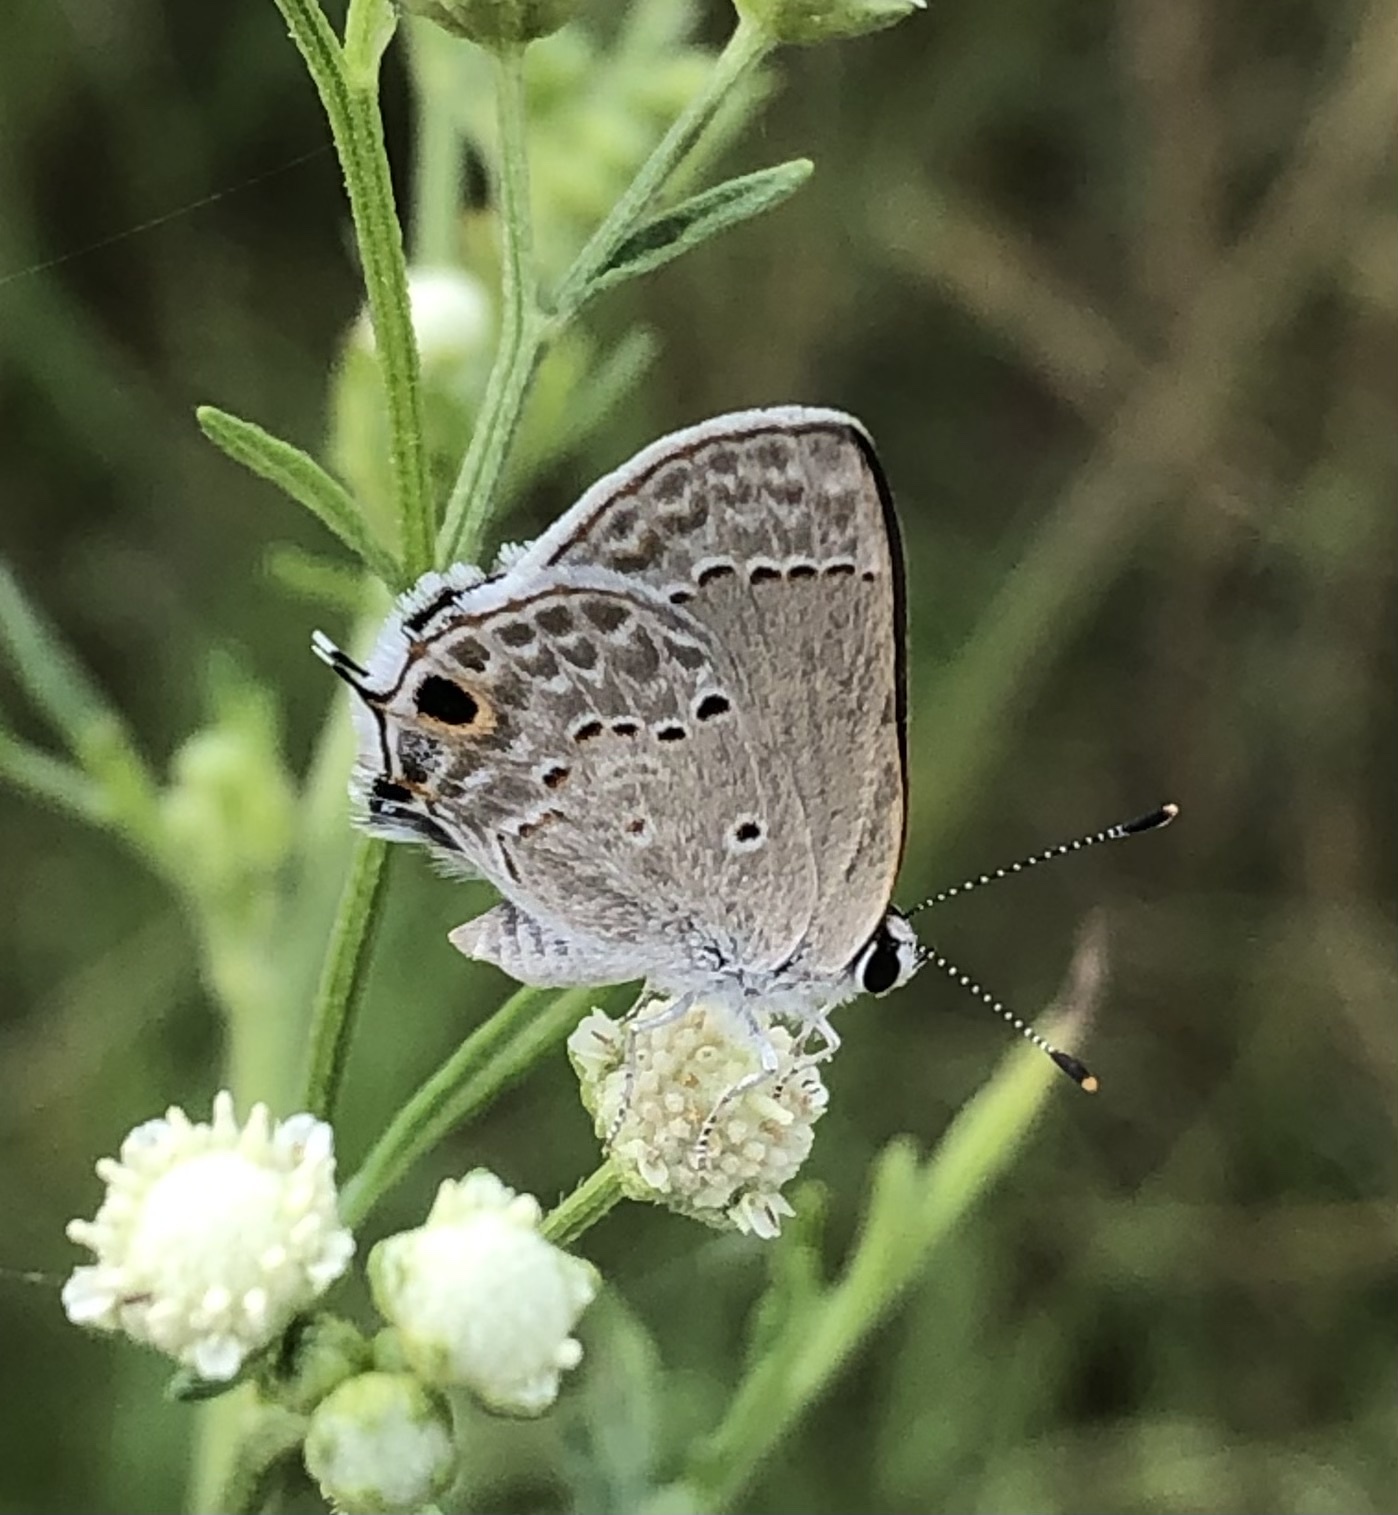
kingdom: Animalia
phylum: Arthropoda
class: Insecta
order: Lepidoptera
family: Lycaenidae
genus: Callicista
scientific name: Callicista columella
